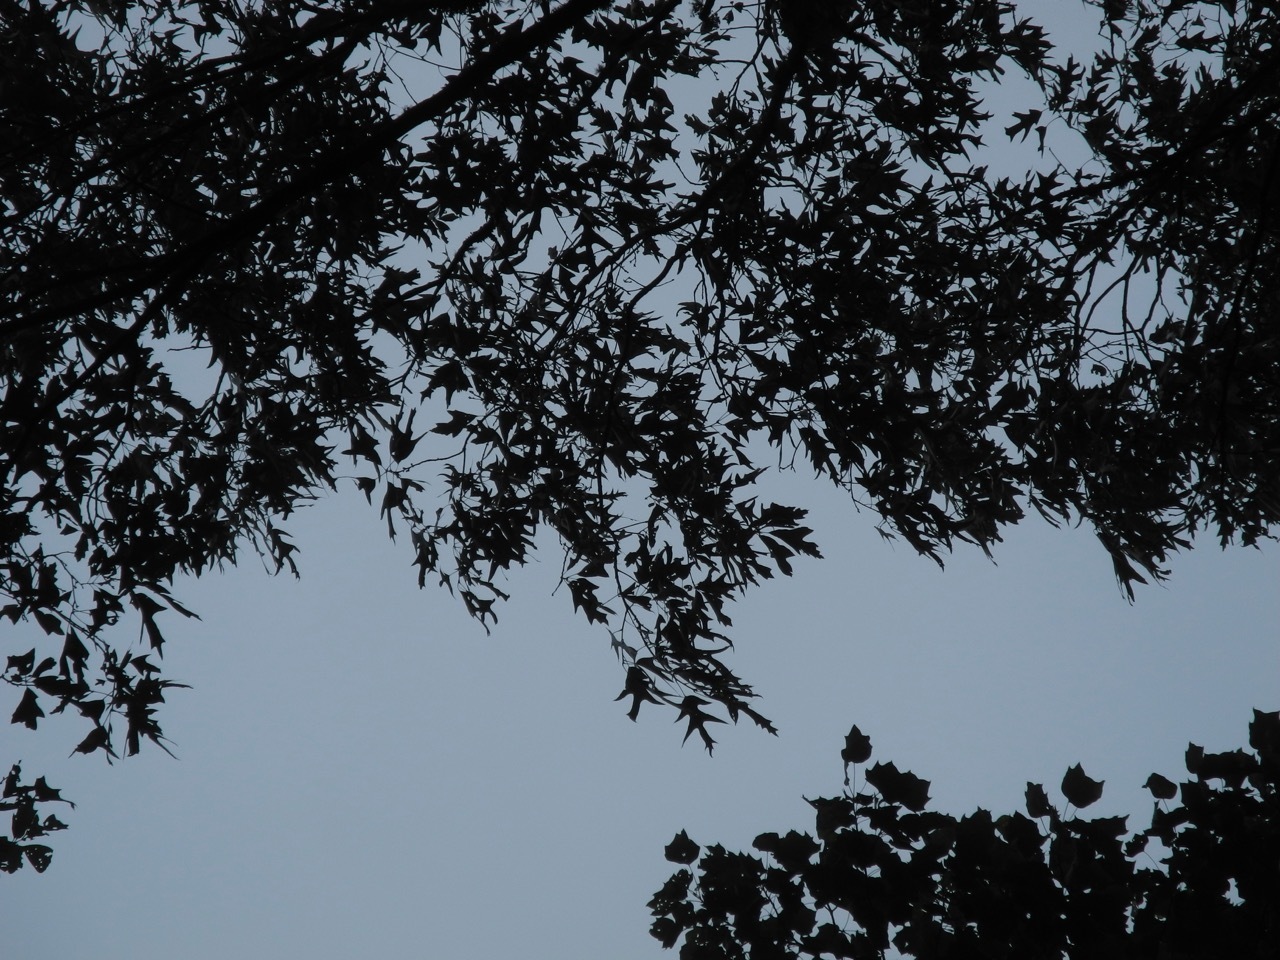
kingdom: Plantae
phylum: Tracheophyta
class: Magnoliopsida
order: Fagales
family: Fagaceae
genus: Quercus
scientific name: Quercus pagoda
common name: Cherrybark oak
